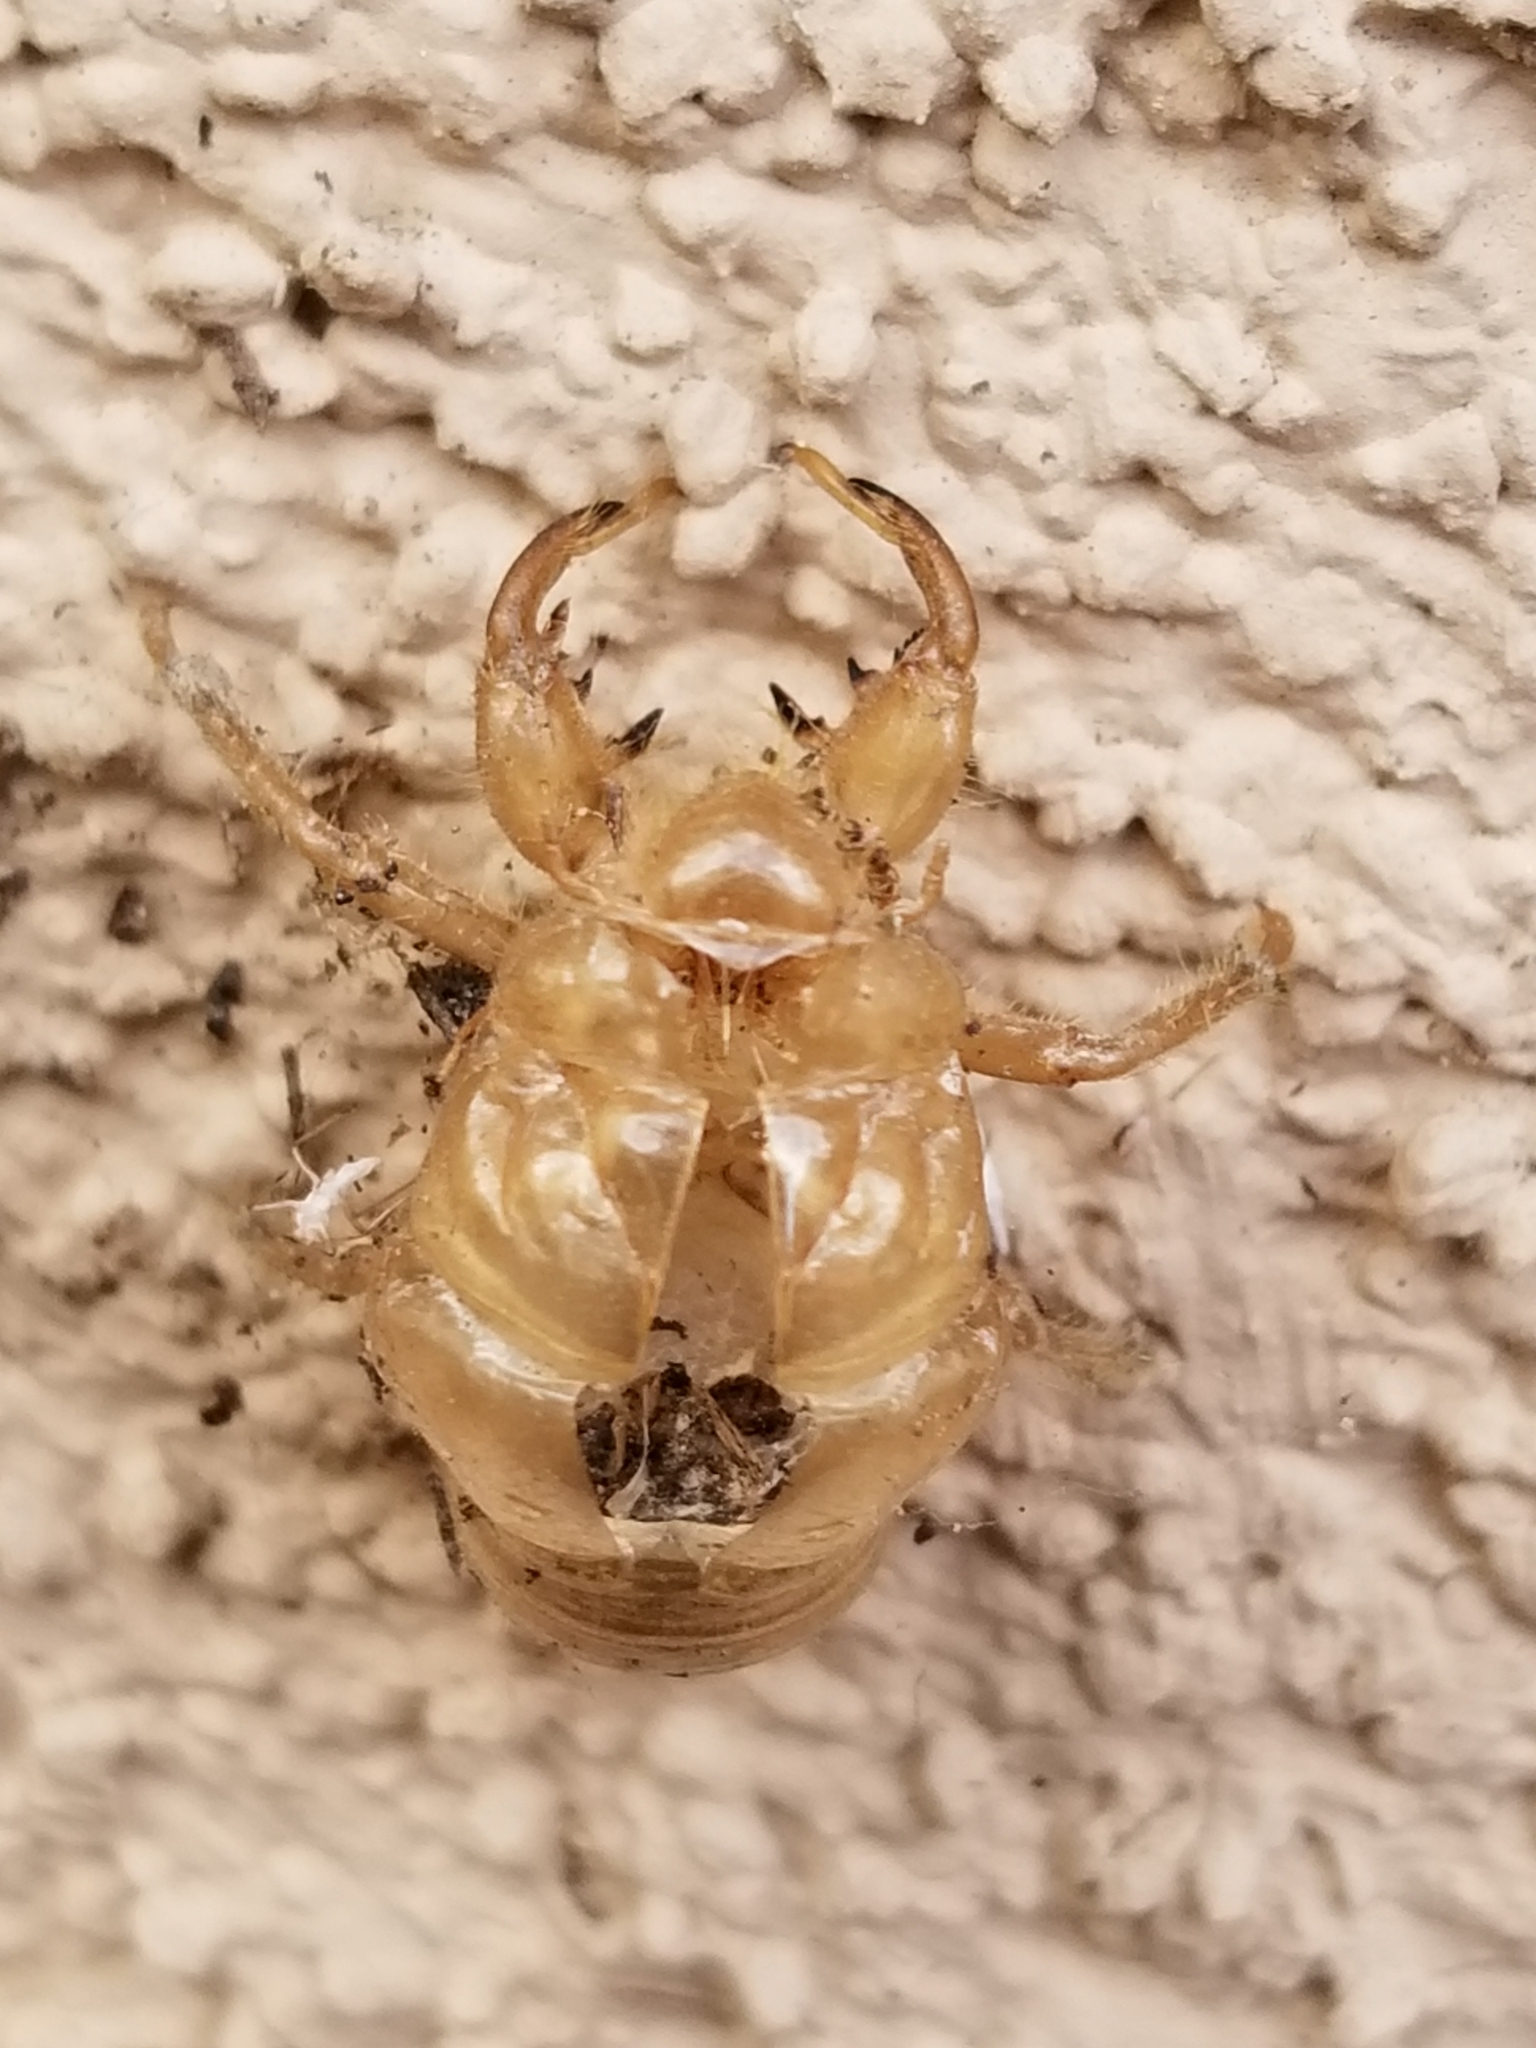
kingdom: Animalia
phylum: Arthropoda
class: Insecta
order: Hemiptera
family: Cicadidae
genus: Diceroprocta
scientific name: Diceroprocta apache
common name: Desert cicada
